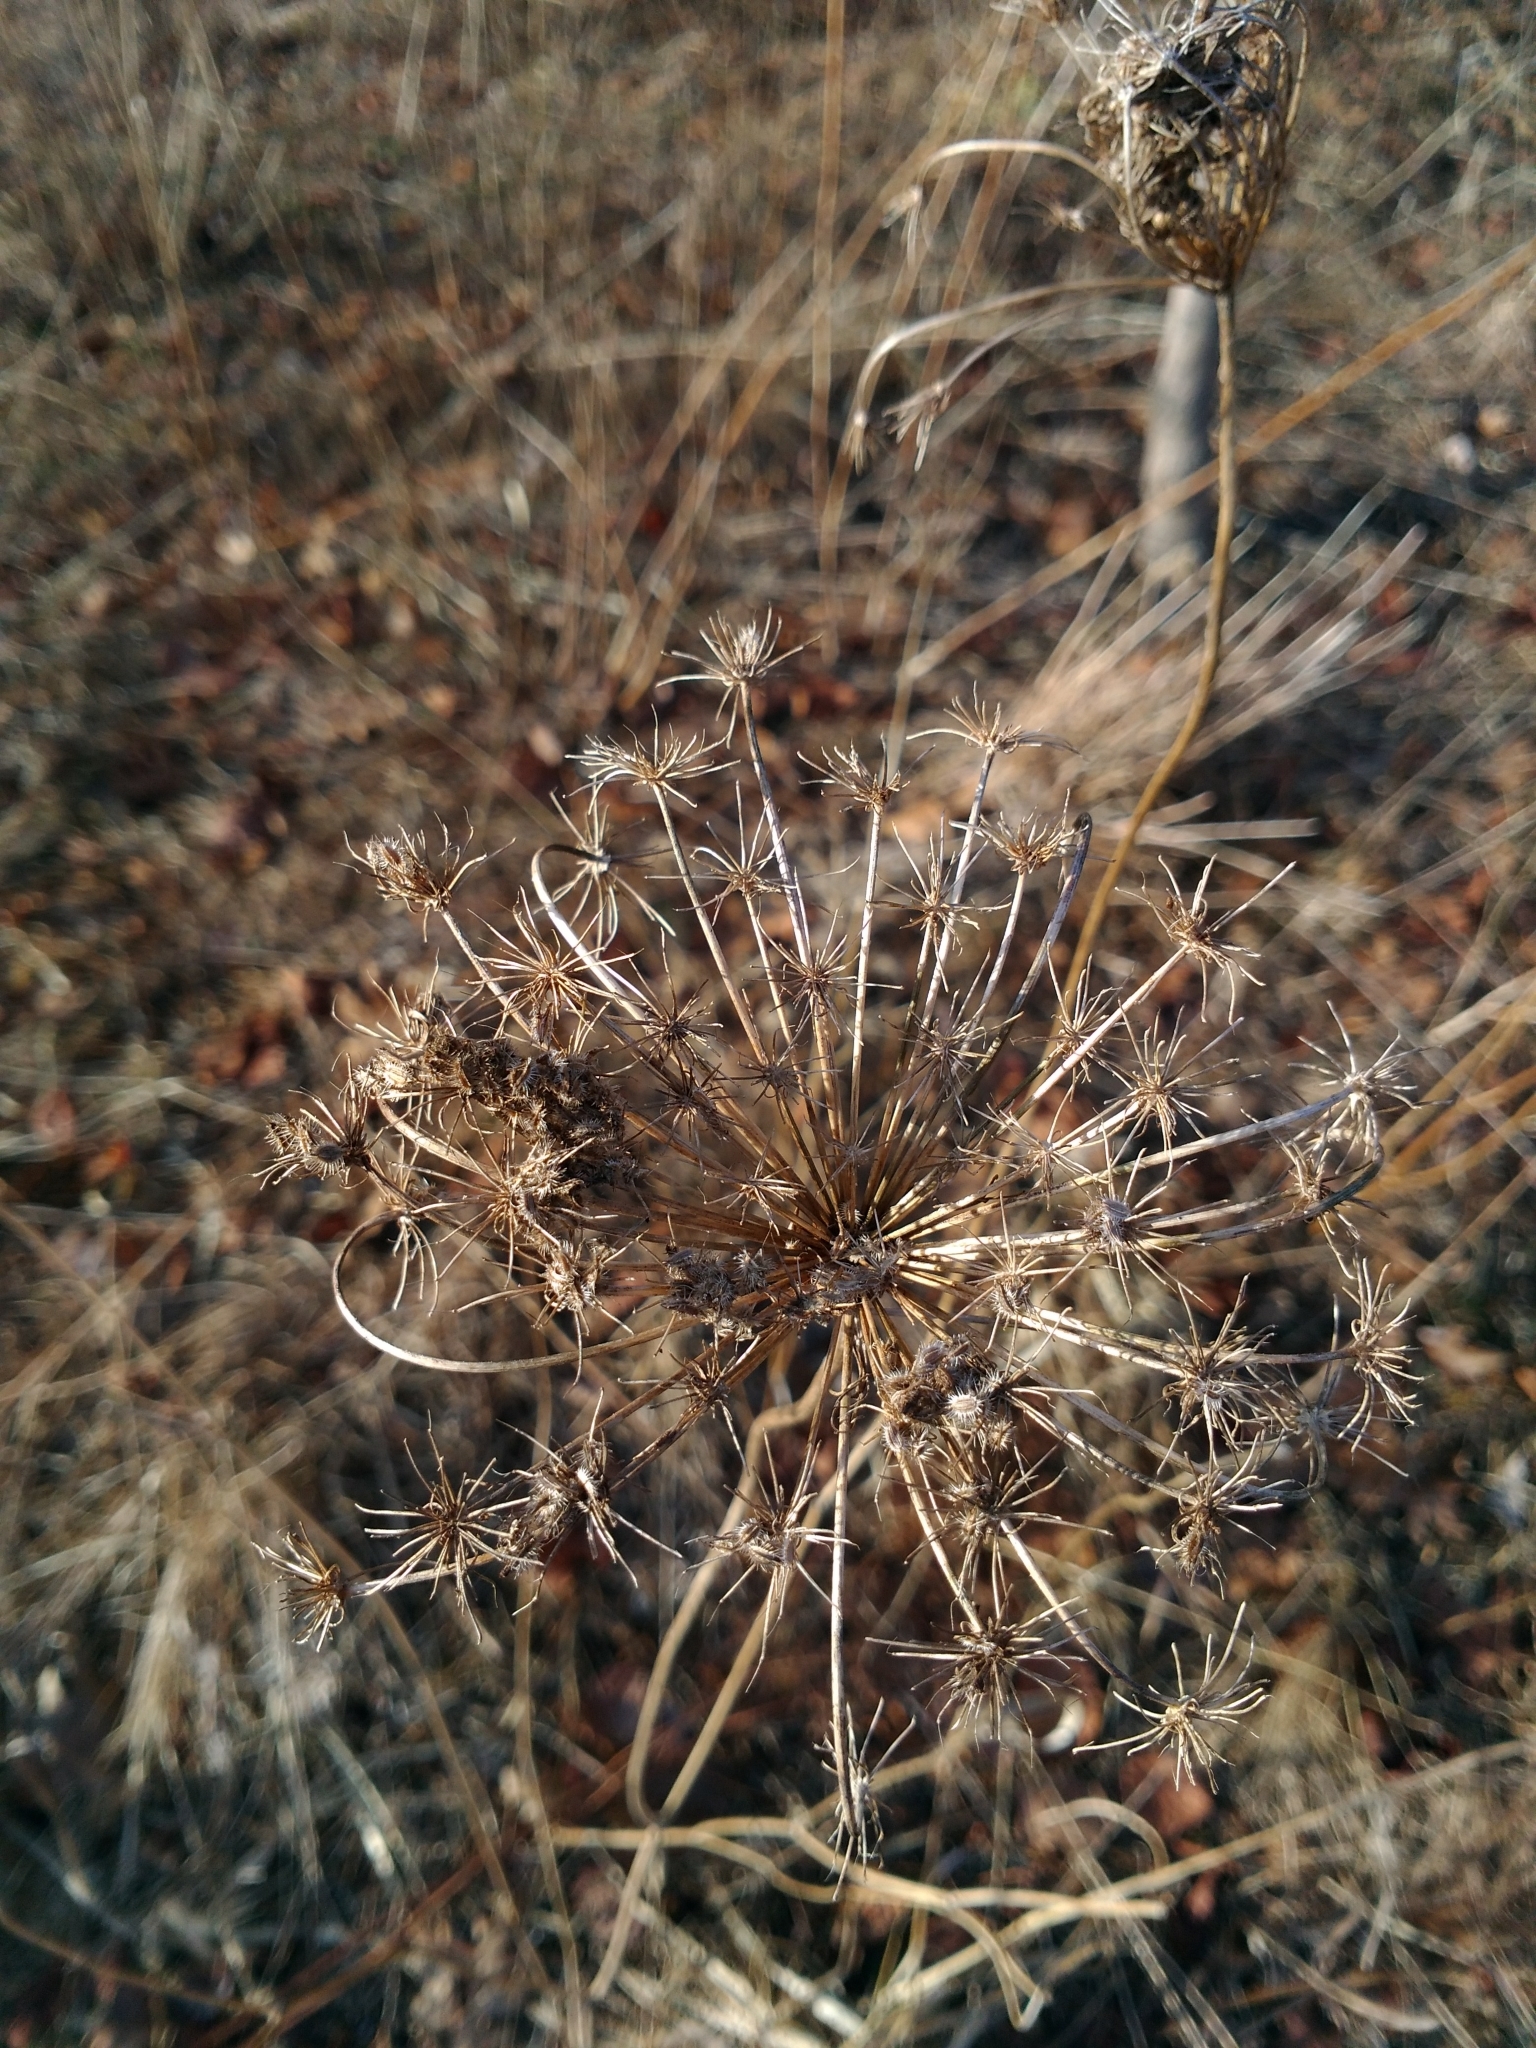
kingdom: Plantae
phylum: Tracheophyta
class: Magnoliopsida
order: Apiales
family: Apiaceae
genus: Daucus
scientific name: Daucus carota
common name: Wild carrot
